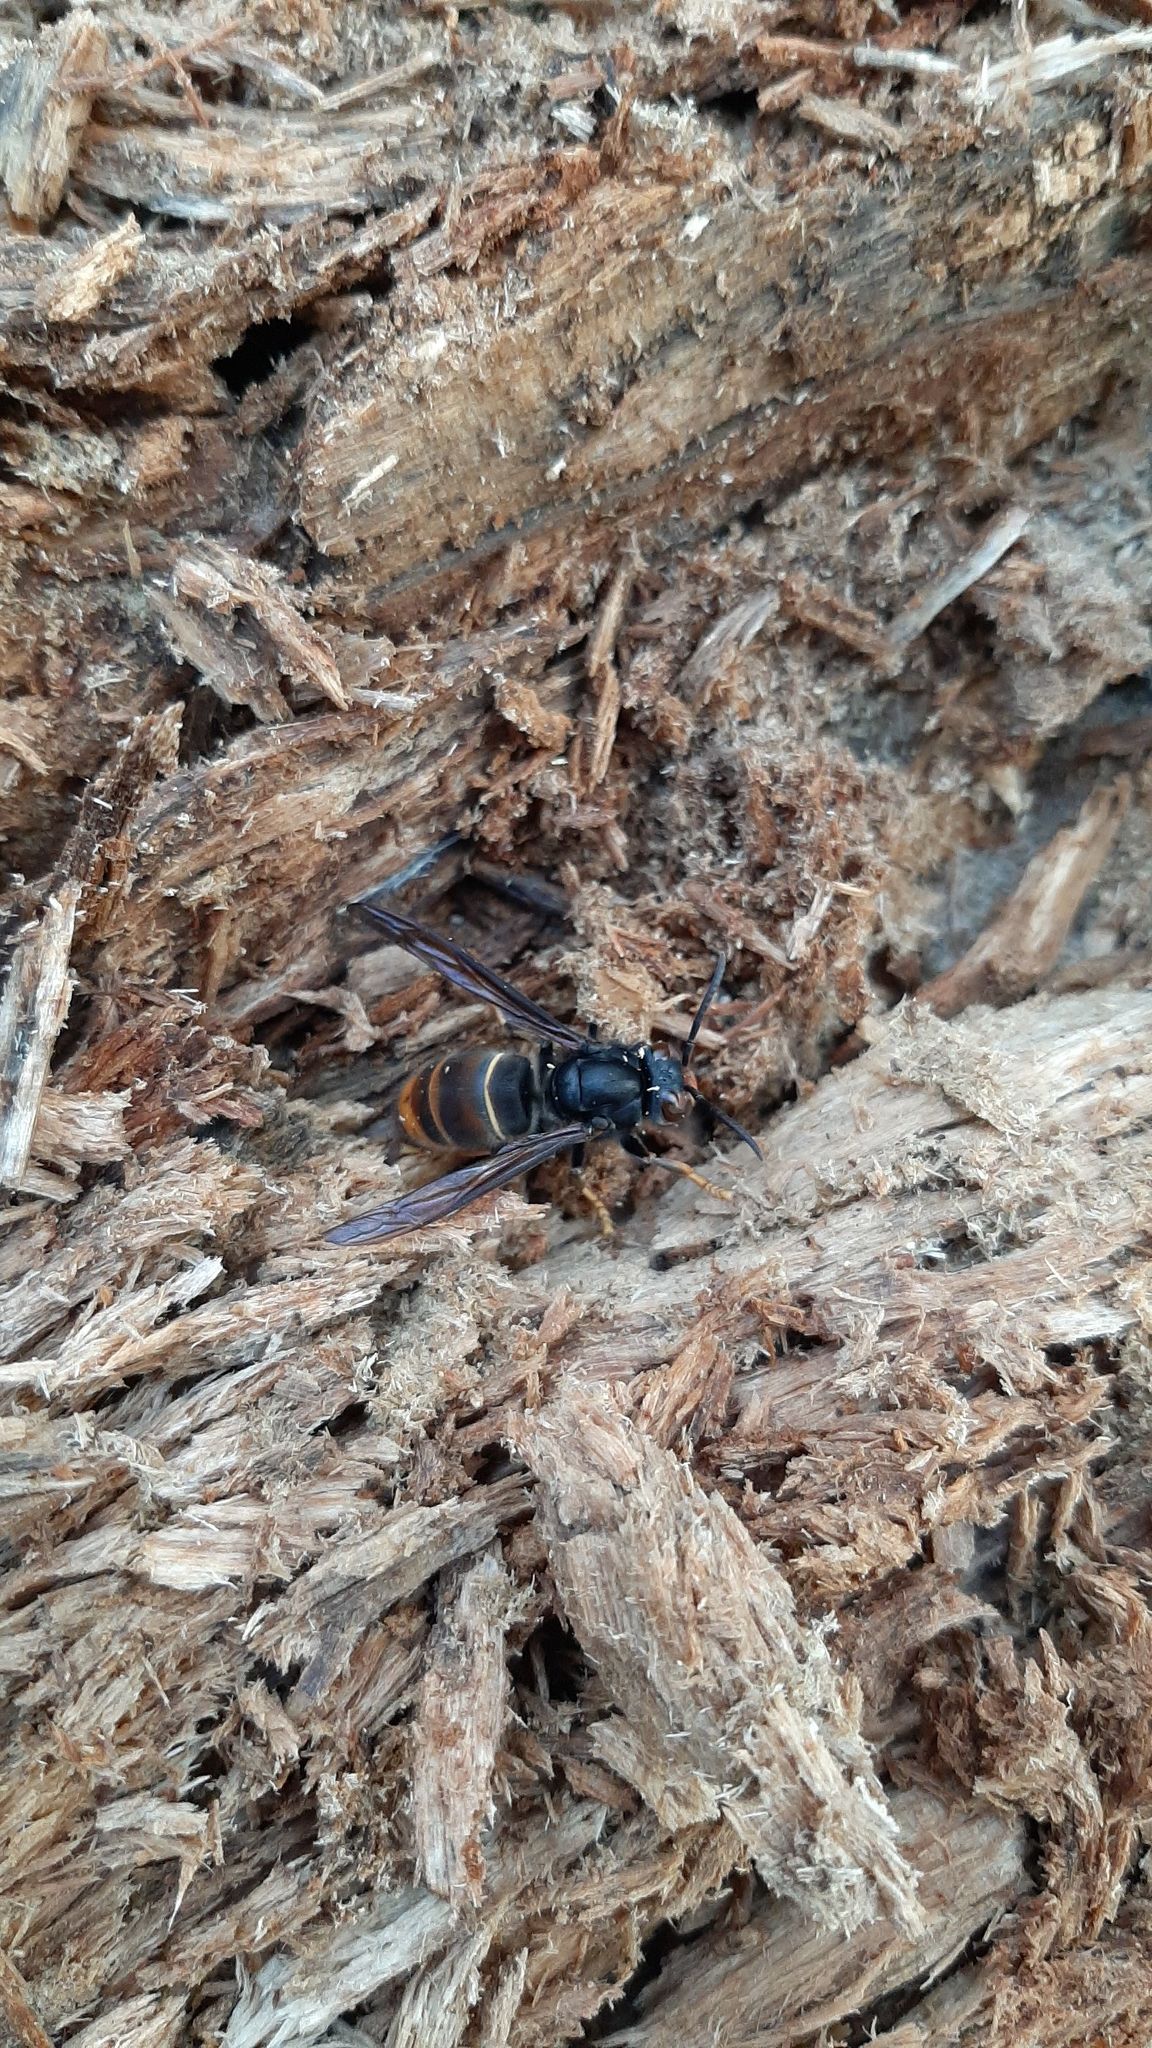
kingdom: Animalia
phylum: Arthropoda
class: Insecta
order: Hymenoptera
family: Vespidae
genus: Vespa
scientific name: Vespa velutina
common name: Asian hornet
